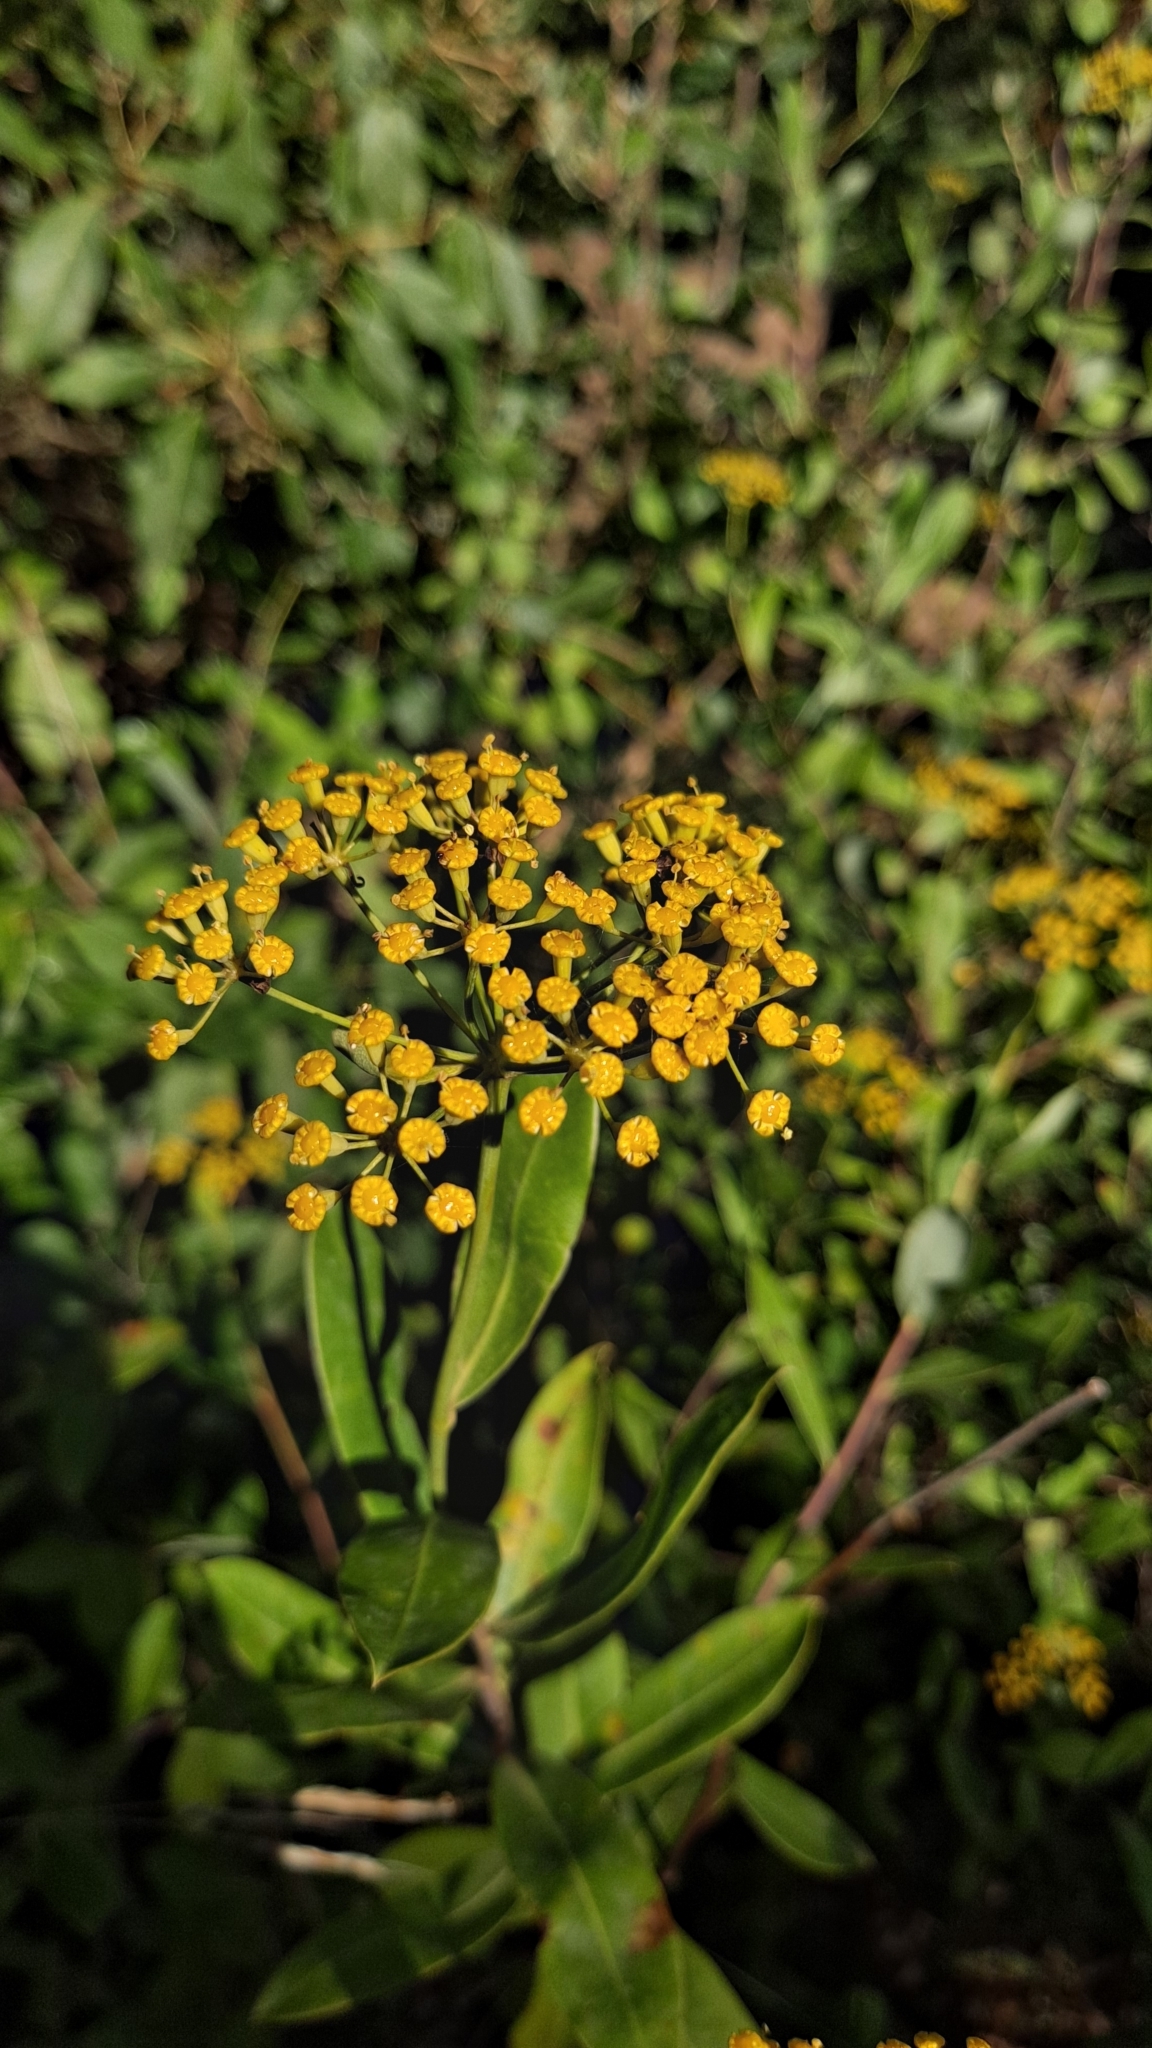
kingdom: Plantae
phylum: Tracheophyta
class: Magnoliopsida
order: Apiales
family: Apiaceae
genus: Bupleurum
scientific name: Bupleurum fruticosum
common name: Shrubby hare's-ear
